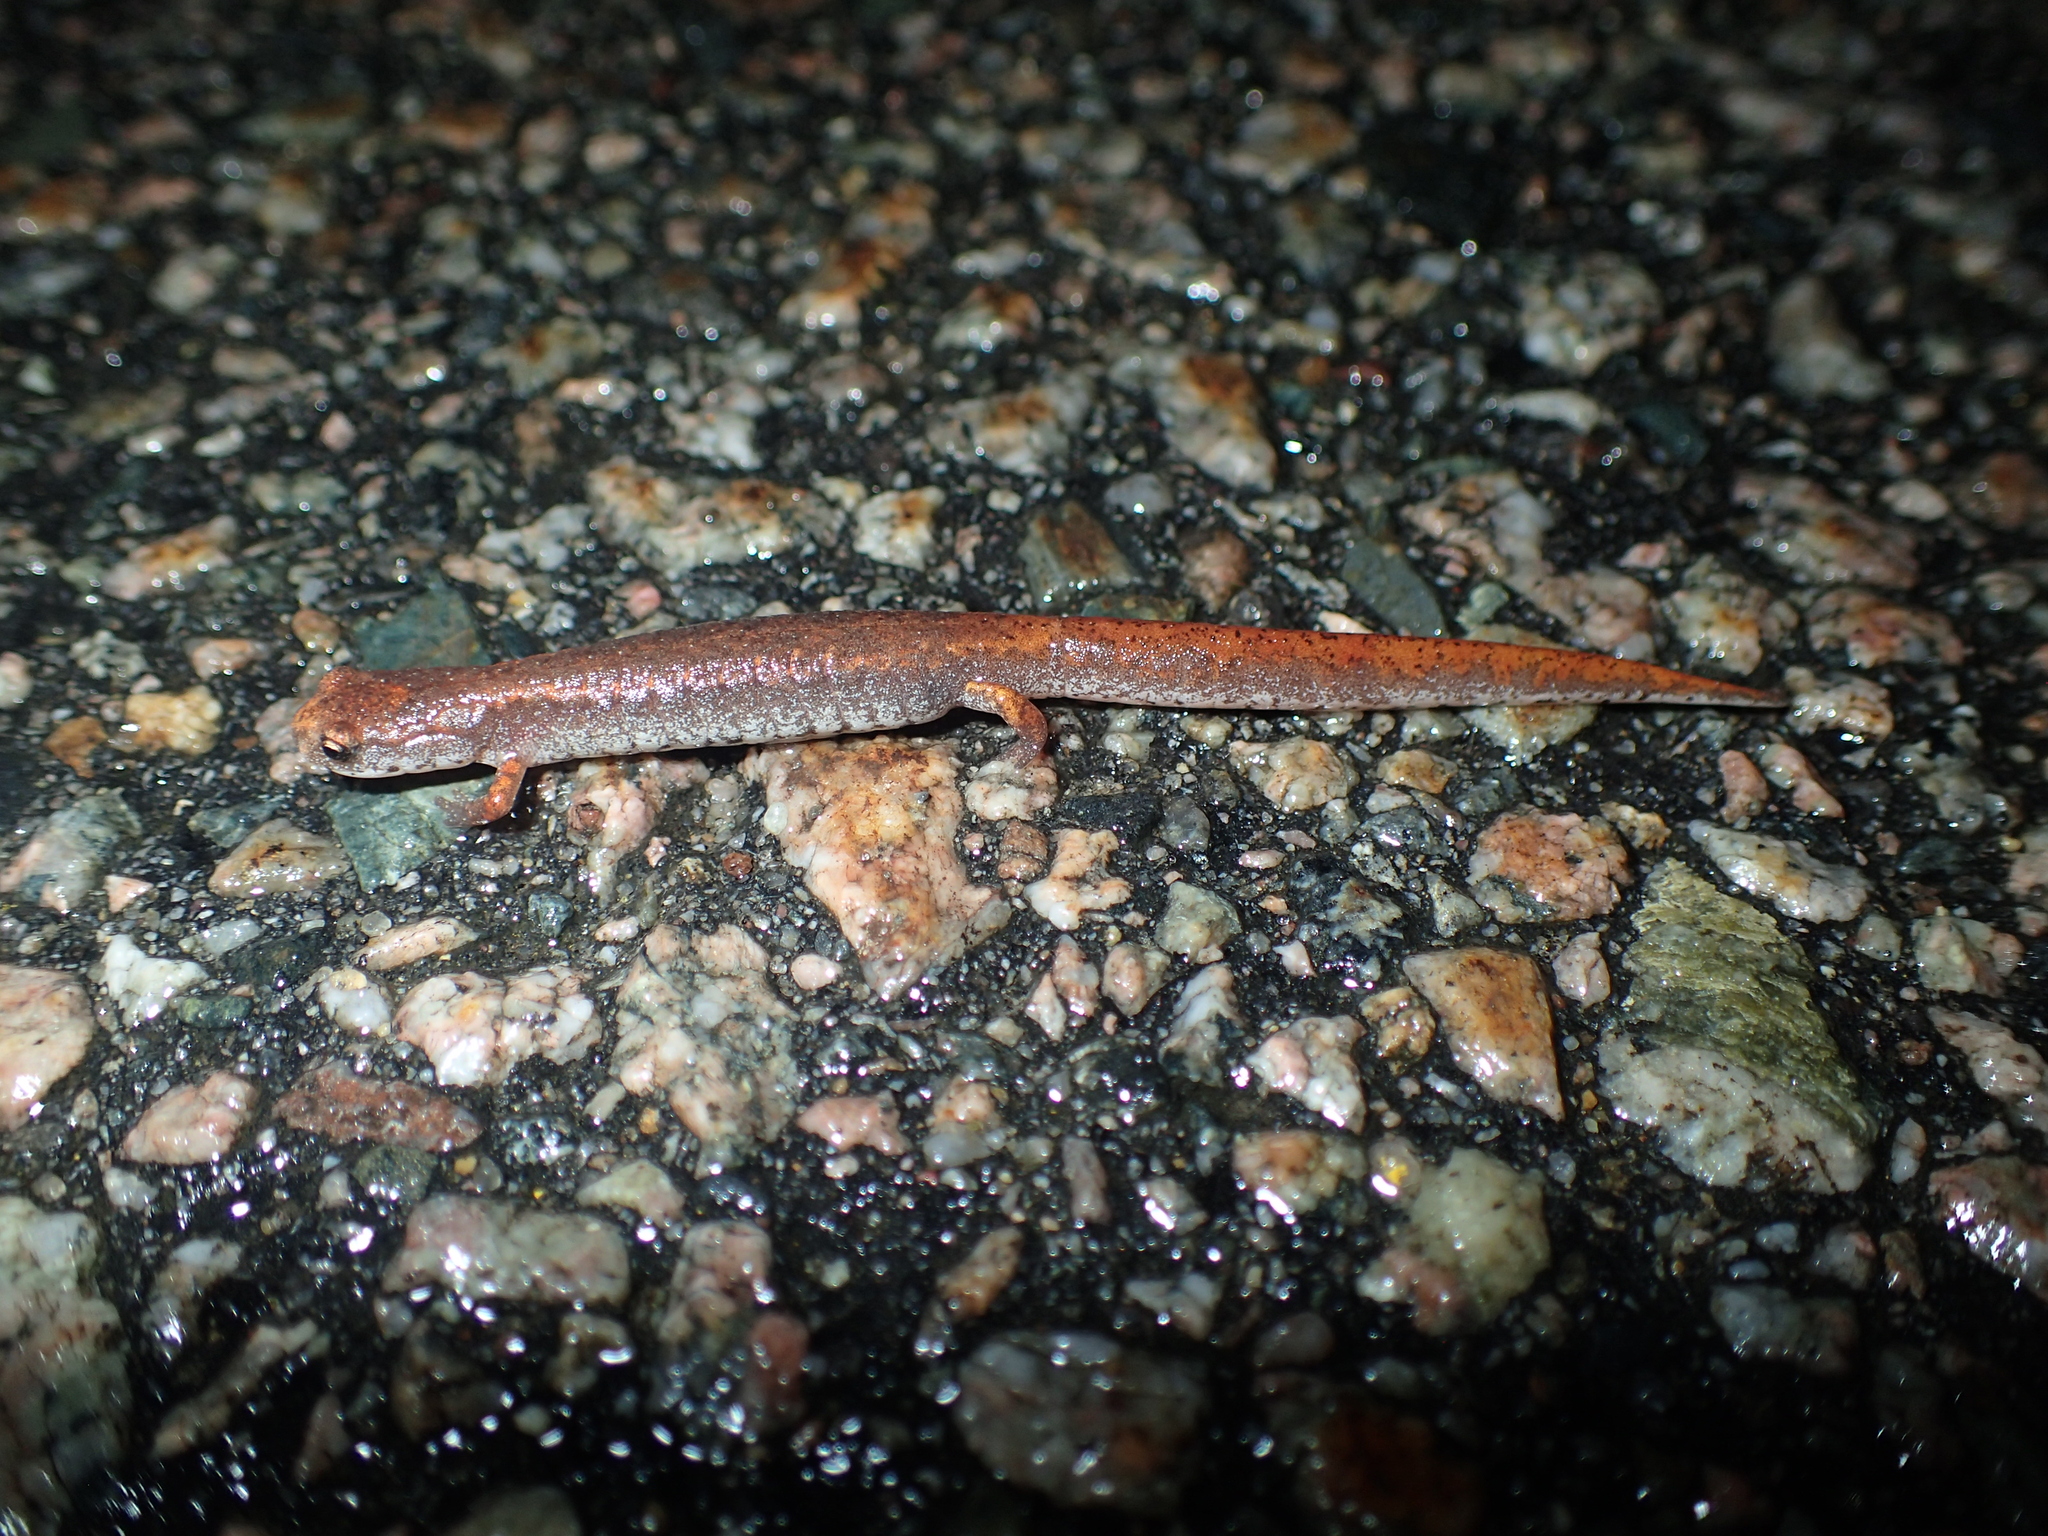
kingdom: Animalia
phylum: Chordata
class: Amphibia
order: Caudata
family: Plethodontidae
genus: Hemidactylium
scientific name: Hemidactylium scutatum
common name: Four-toed salamander
